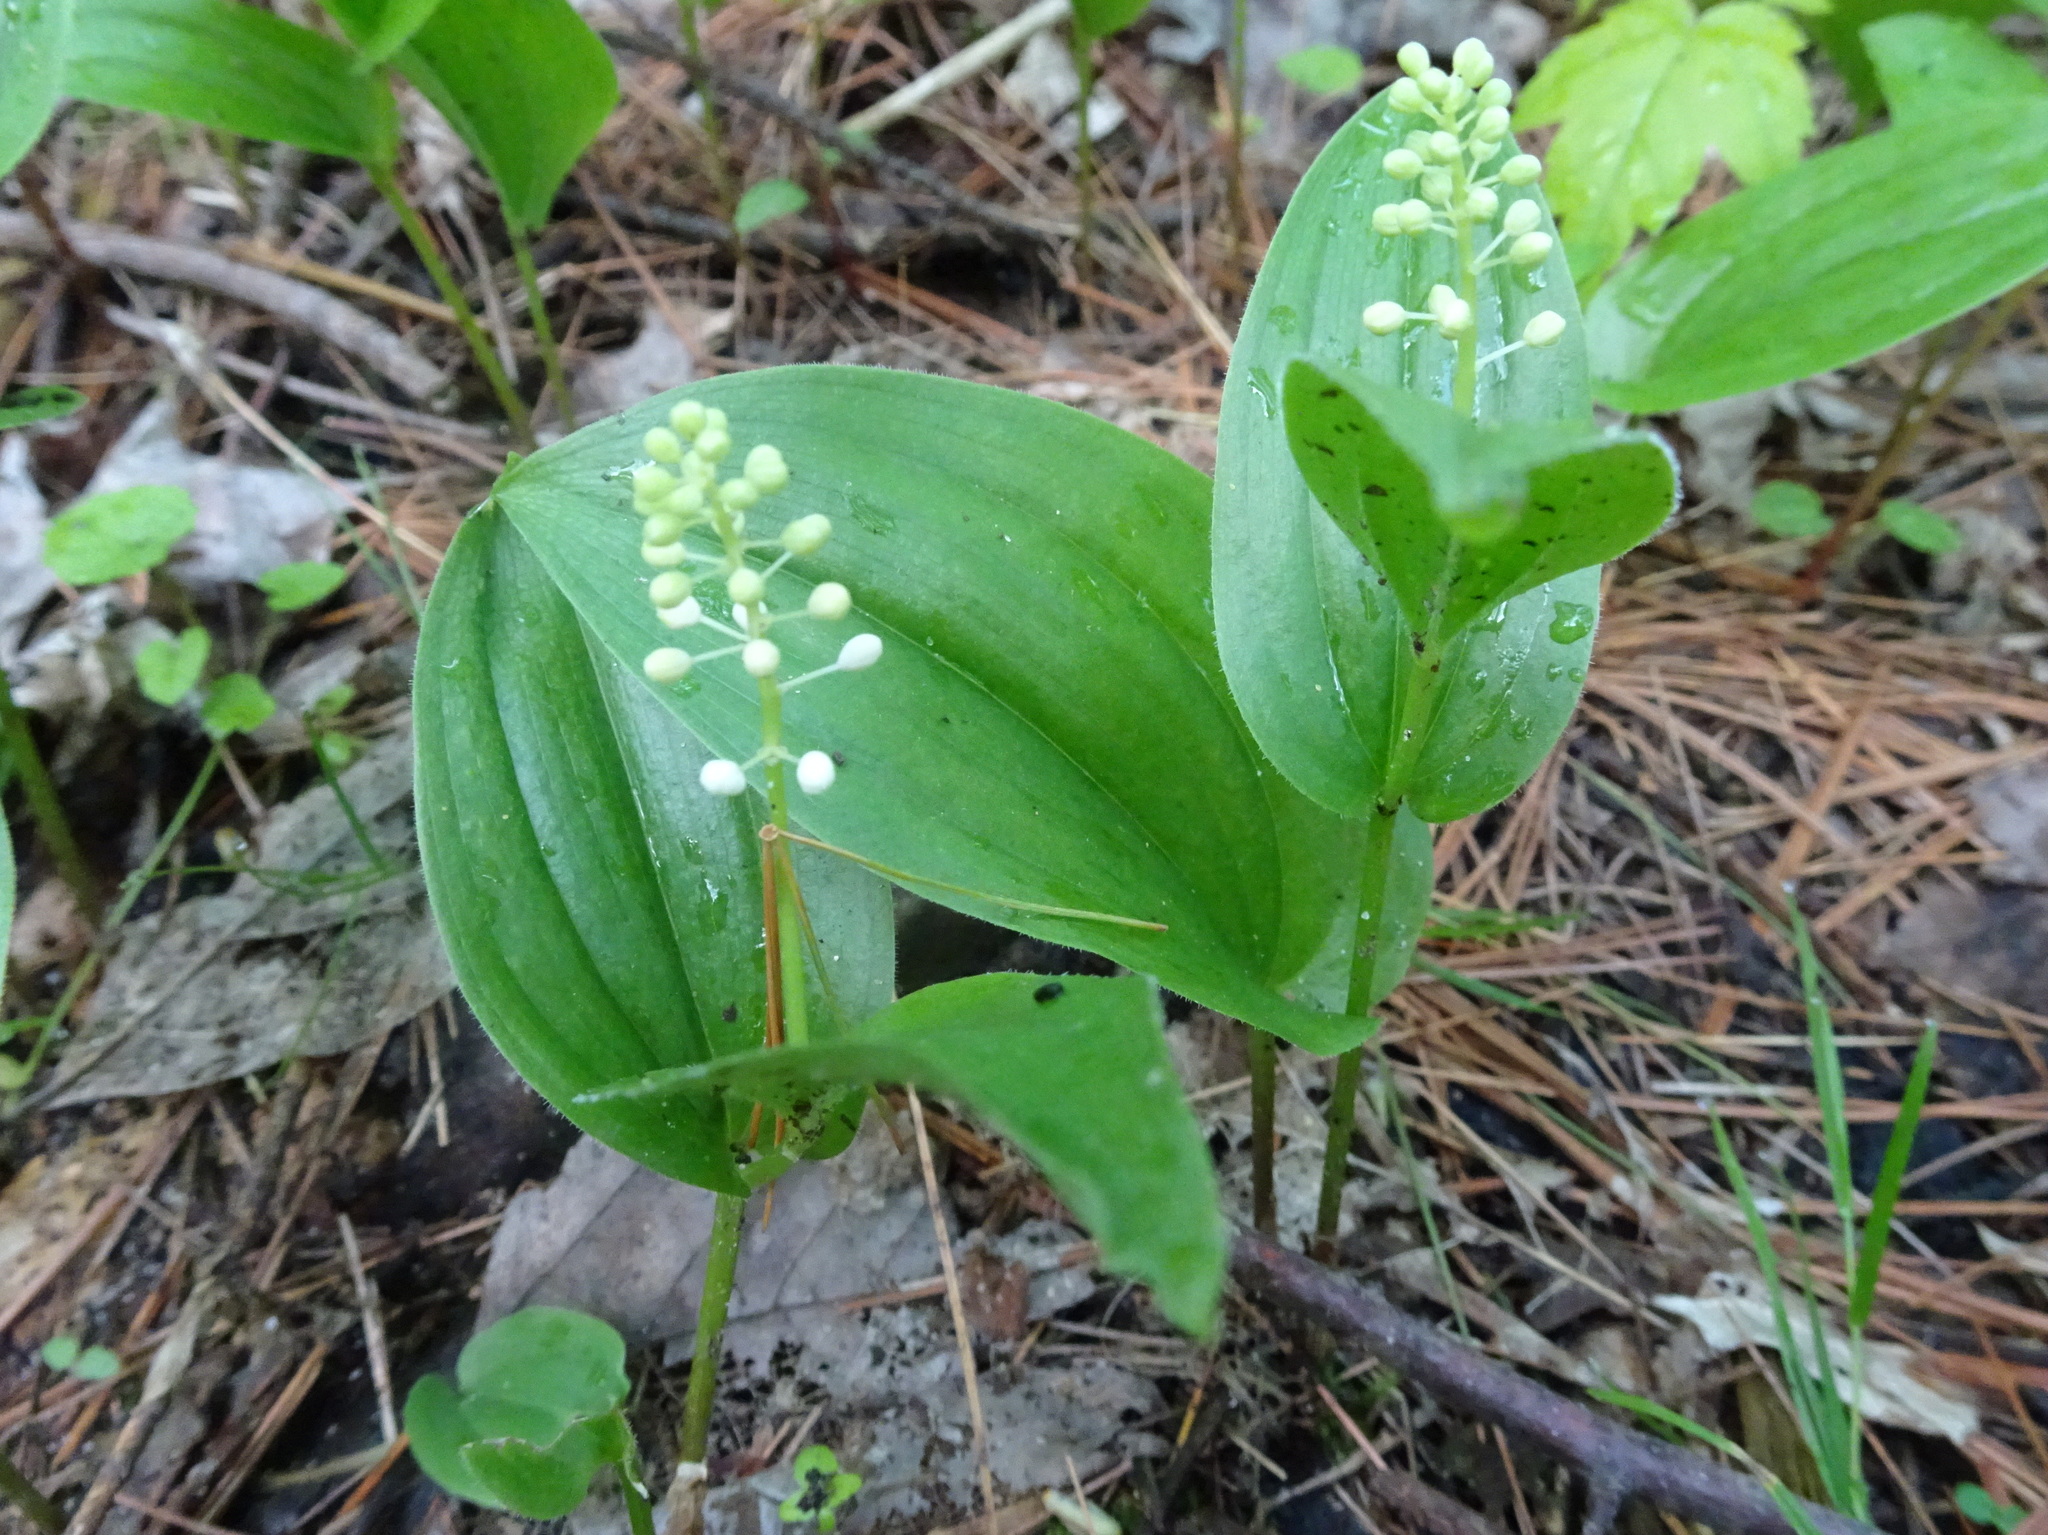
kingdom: Plantae
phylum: Tracheophyta
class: Liliopsida
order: Asparagales
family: Asparagaceae
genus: Maianthemum
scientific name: Maianthemum canadense
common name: False lily-of-the-valley
